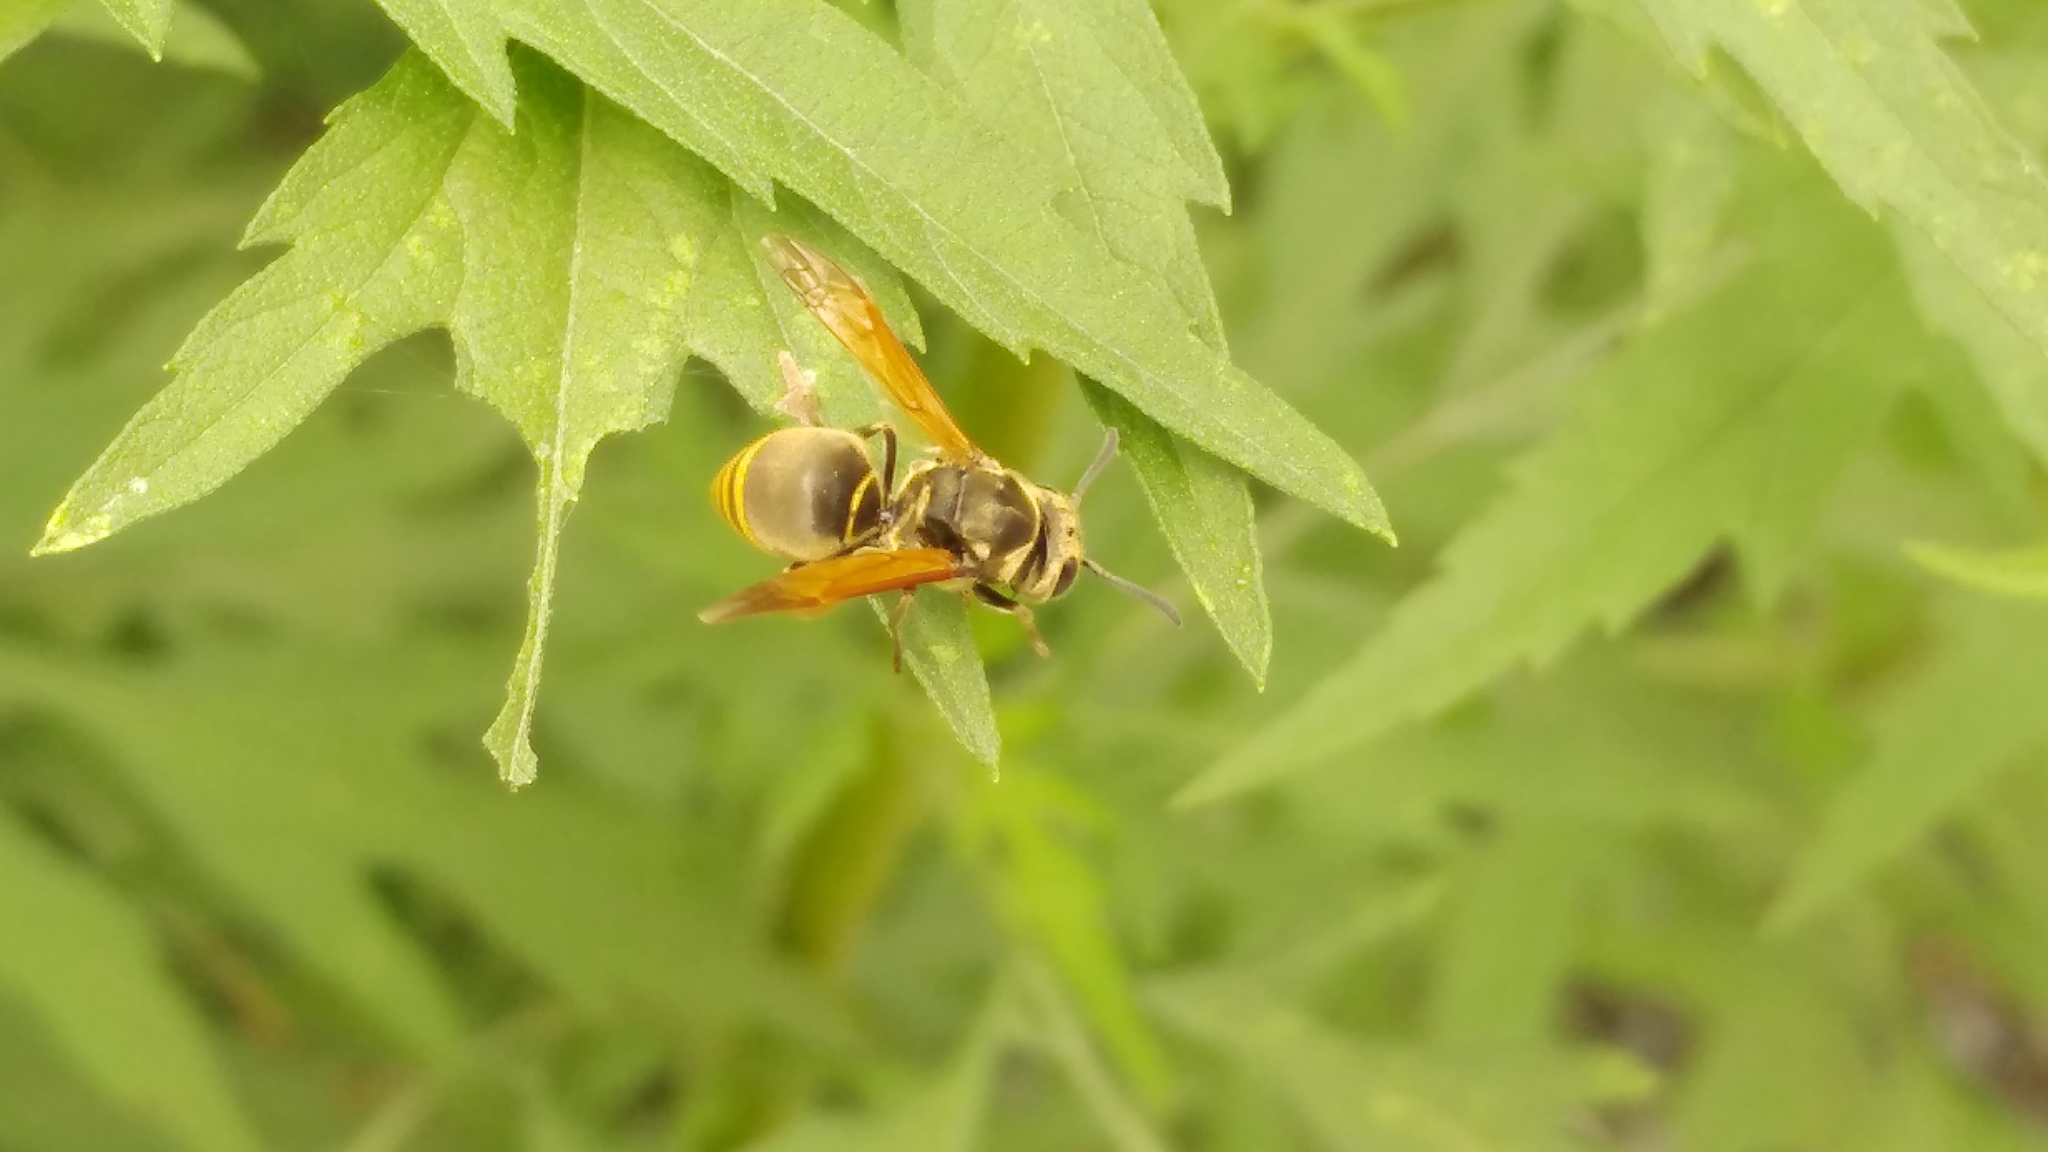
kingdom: Animalia
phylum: Arthropoda
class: Insecta
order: Hymenoptera
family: Vespidae
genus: Brachygastra
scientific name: Brachygastra mellifica
